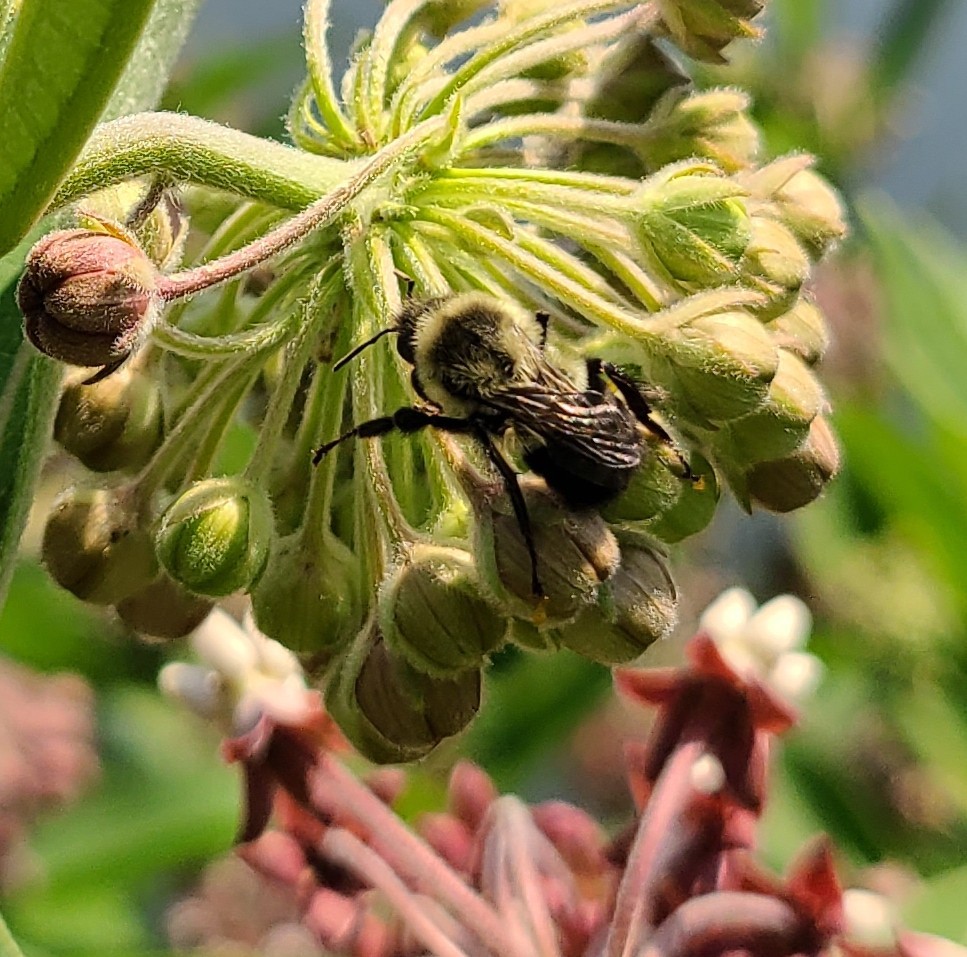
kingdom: Animalia
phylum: Arthropoda
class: Insecta
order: Hymenoptera
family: Apidae
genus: Bombus
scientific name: Bombus impatiens
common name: Common eastern bumble bee
